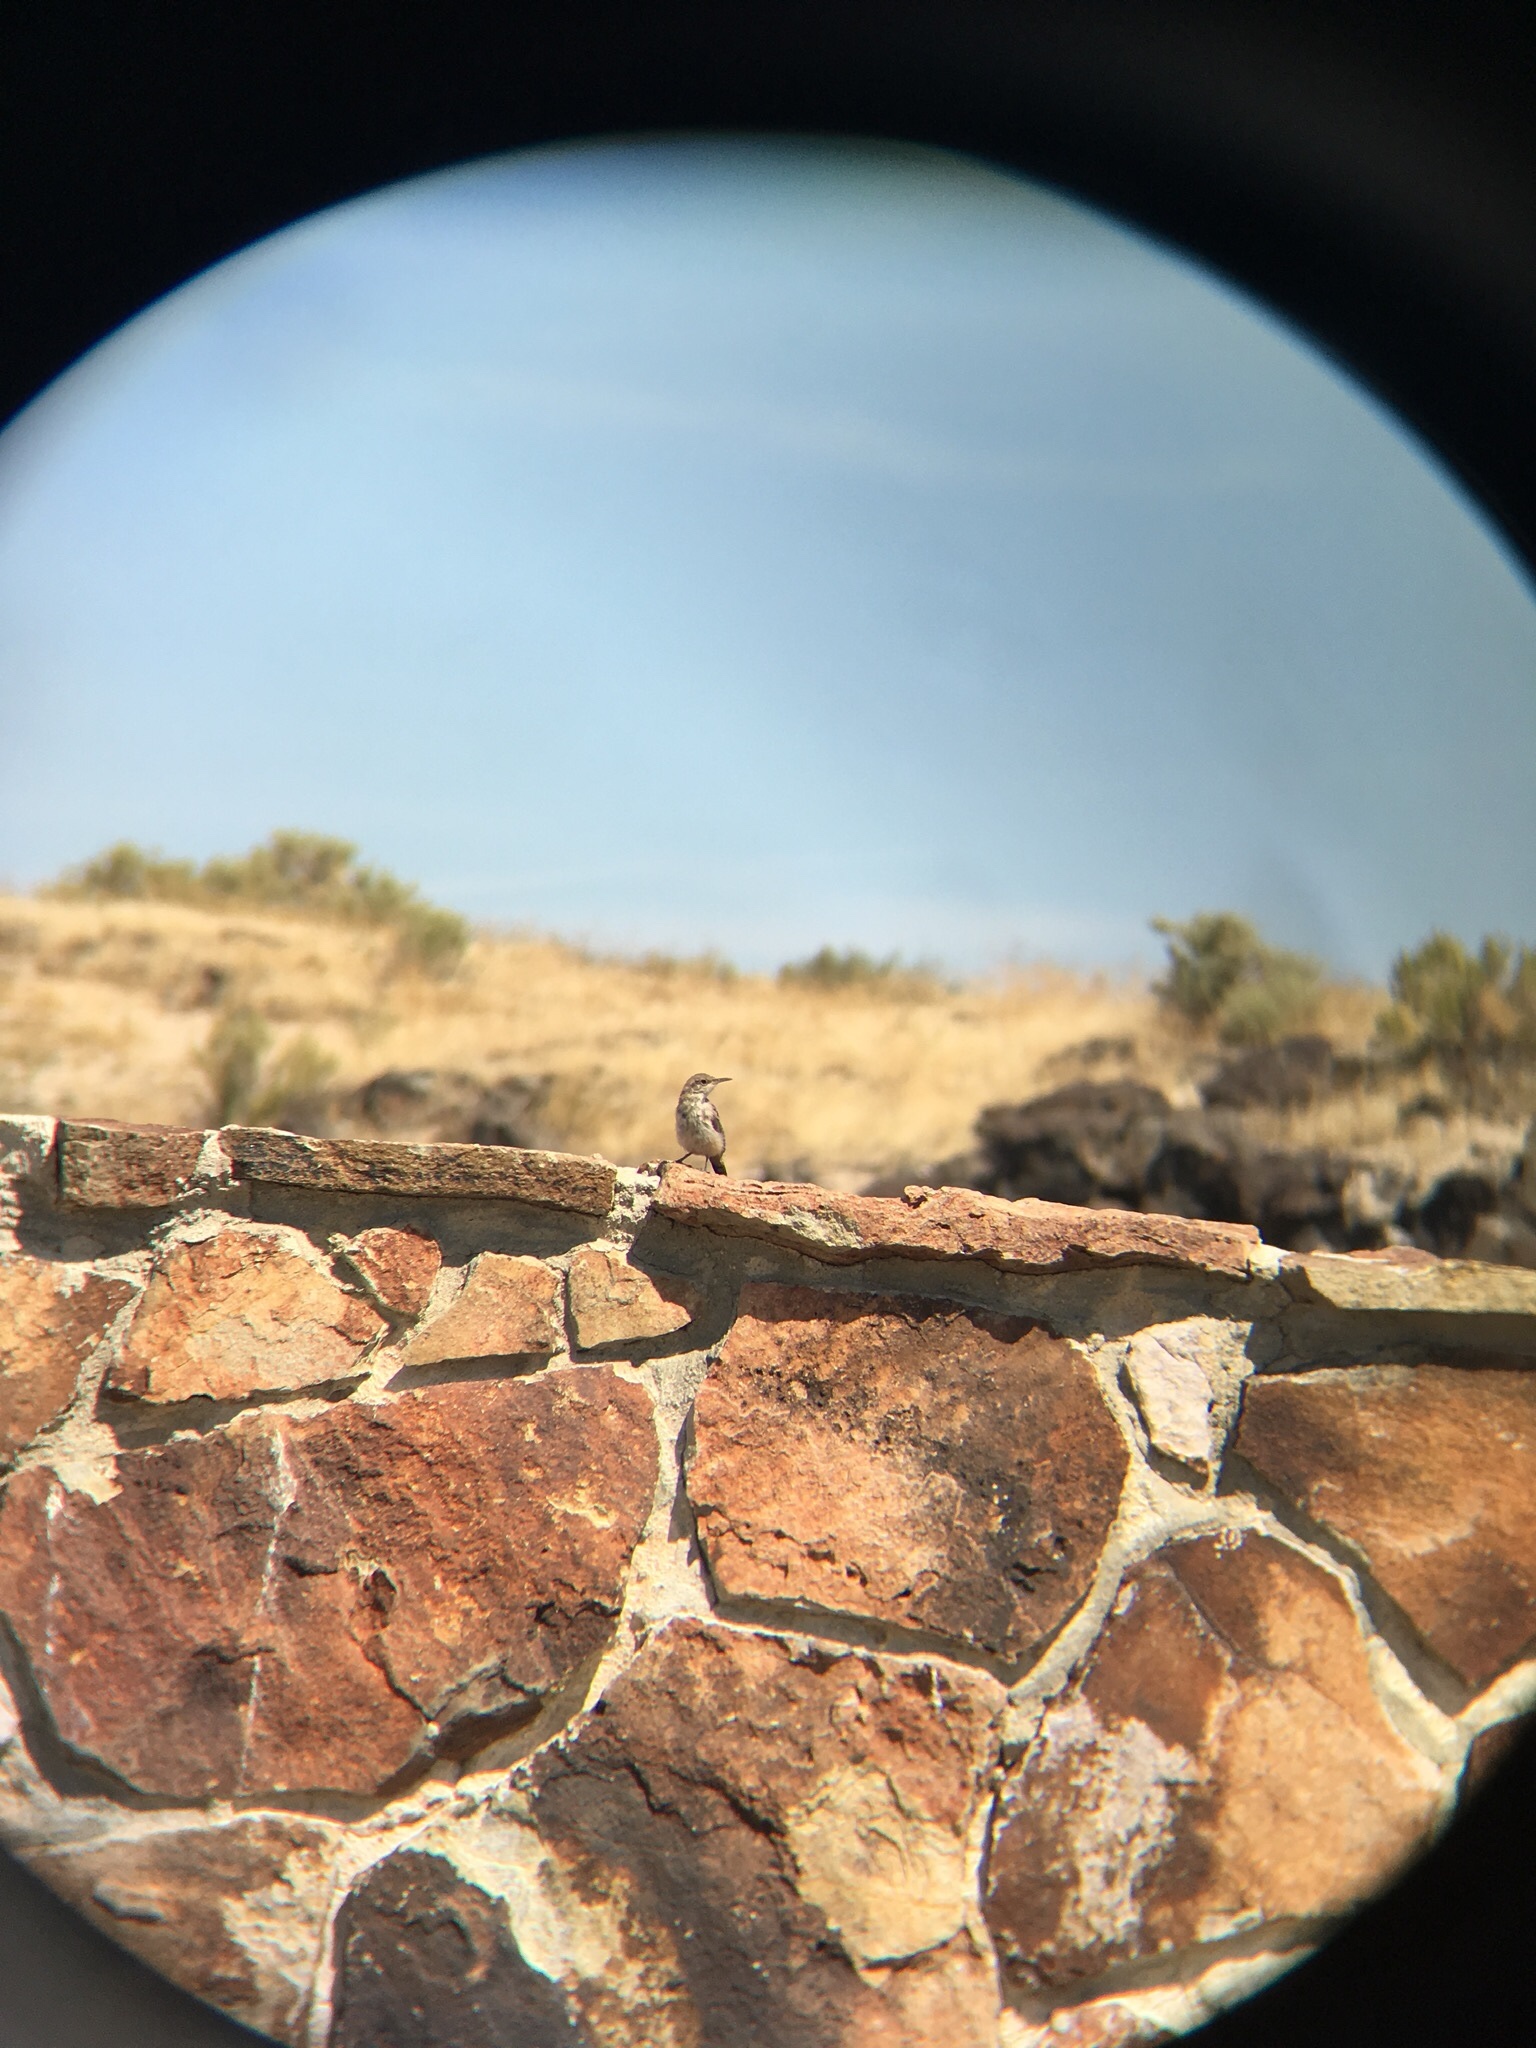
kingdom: Animalia
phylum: Chordata
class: Aves
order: Passeriformes
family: Troglodytidae
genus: Salpinctes
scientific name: Salpinctes obsoletus
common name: Rock wren
